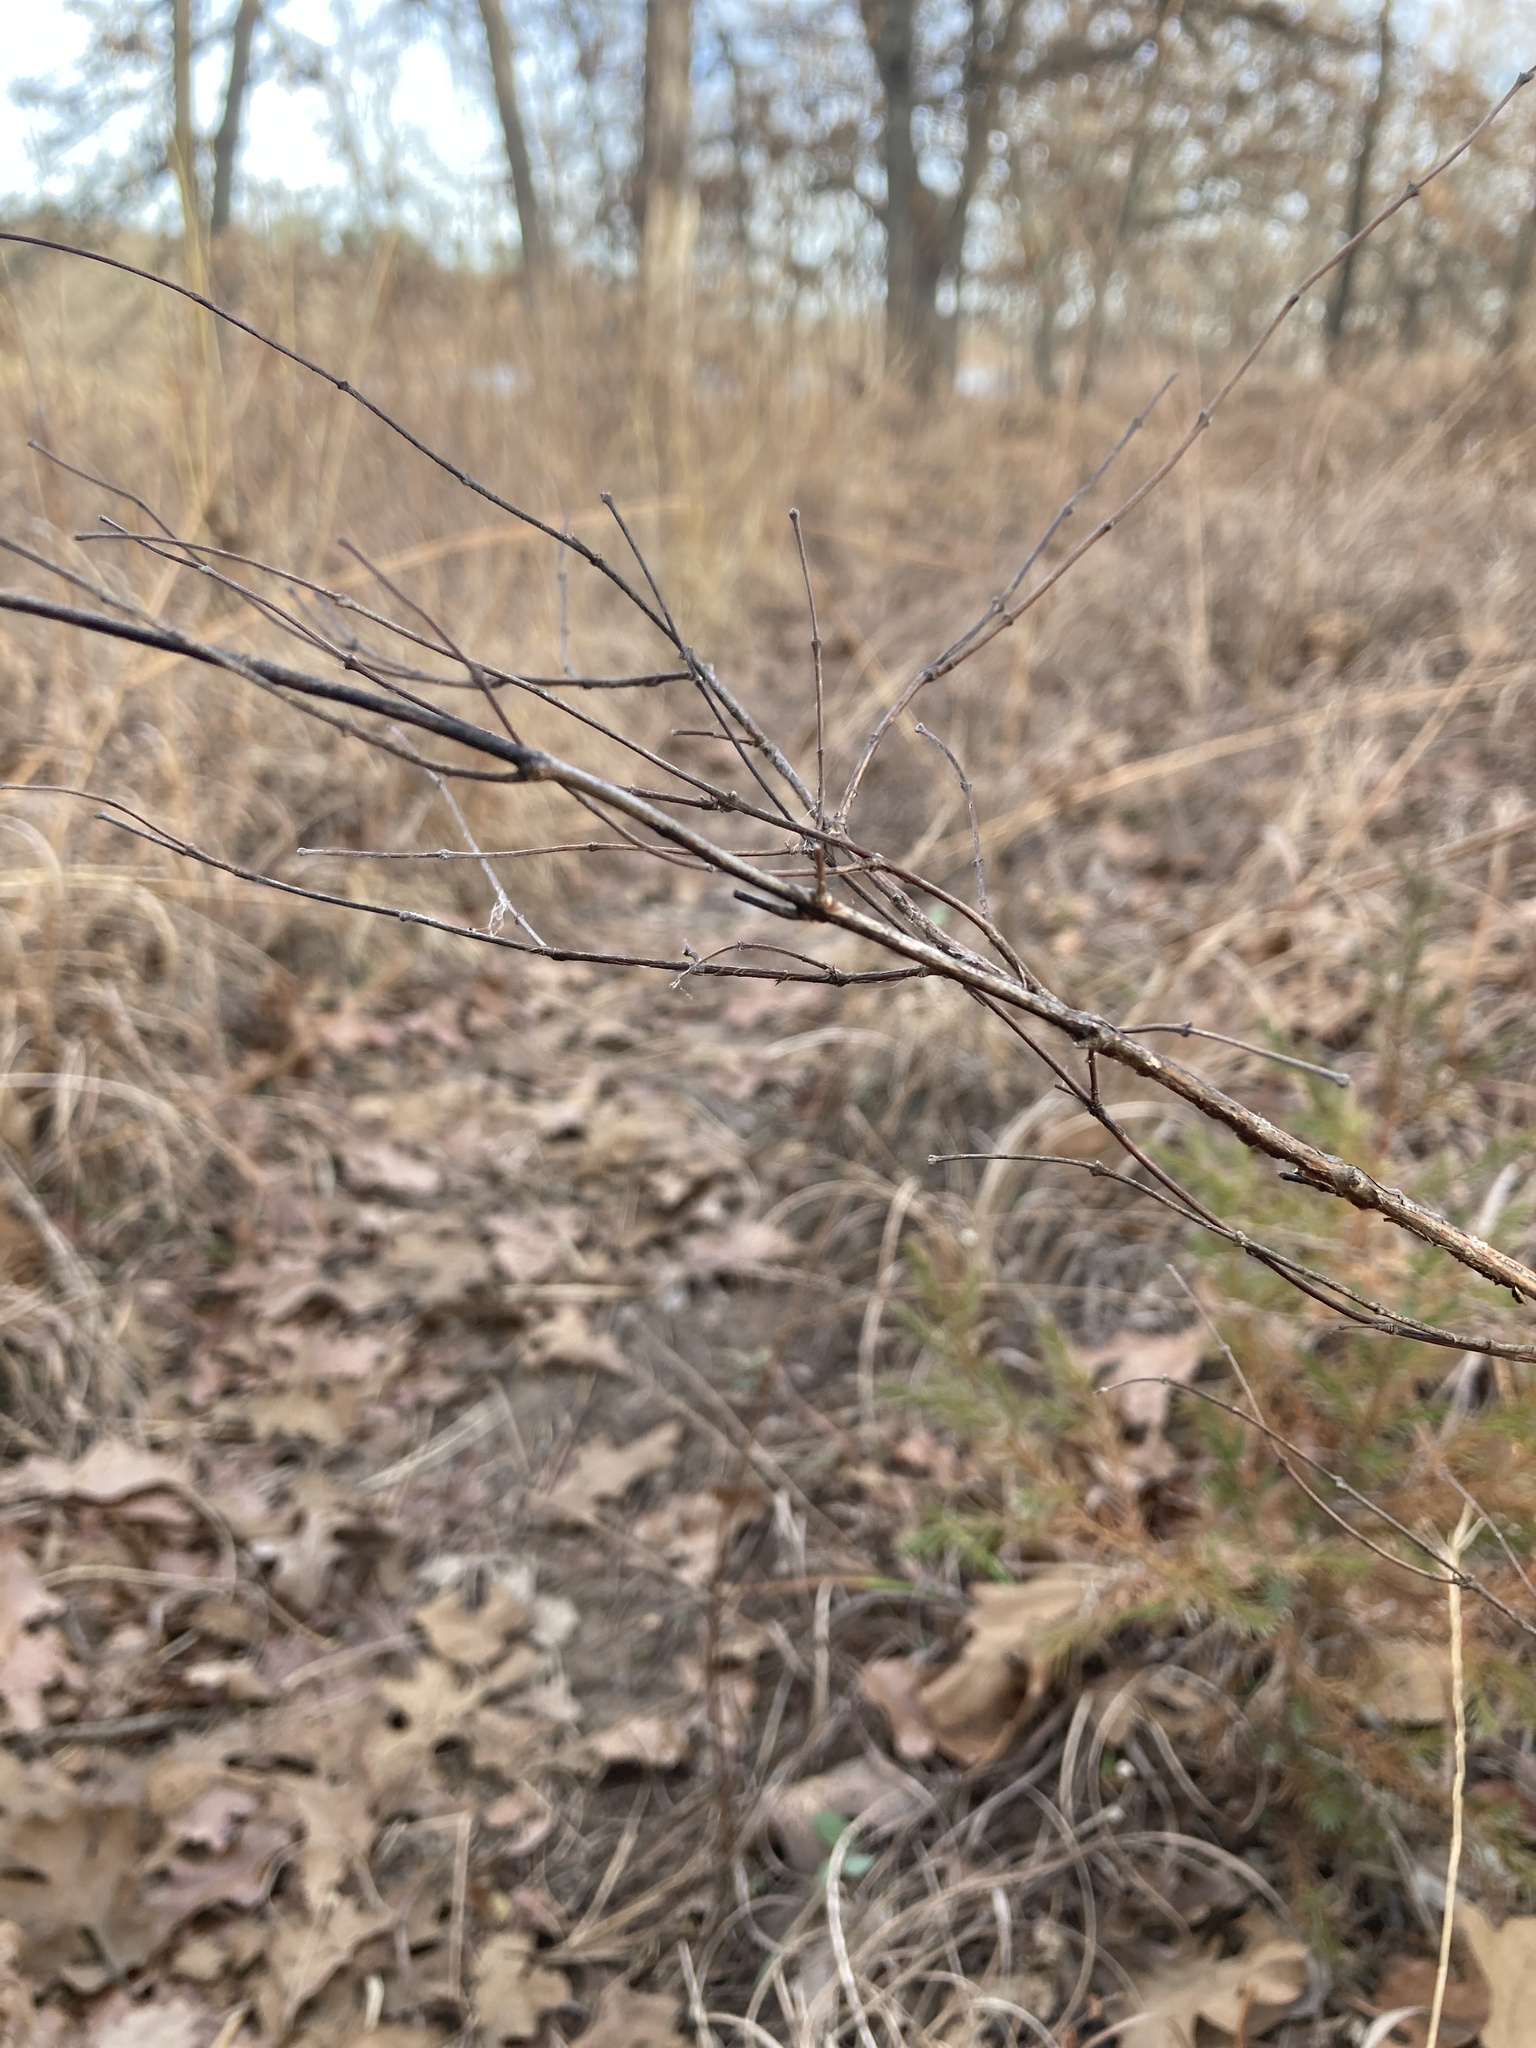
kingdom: Plantae
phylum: Tracheophyta
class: Magnoliopsida
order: Dipsacales
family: Caprifoliaceae
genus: Symphoricarpos
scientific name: Symphoricarpos orbiculatus
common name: Coralberry
